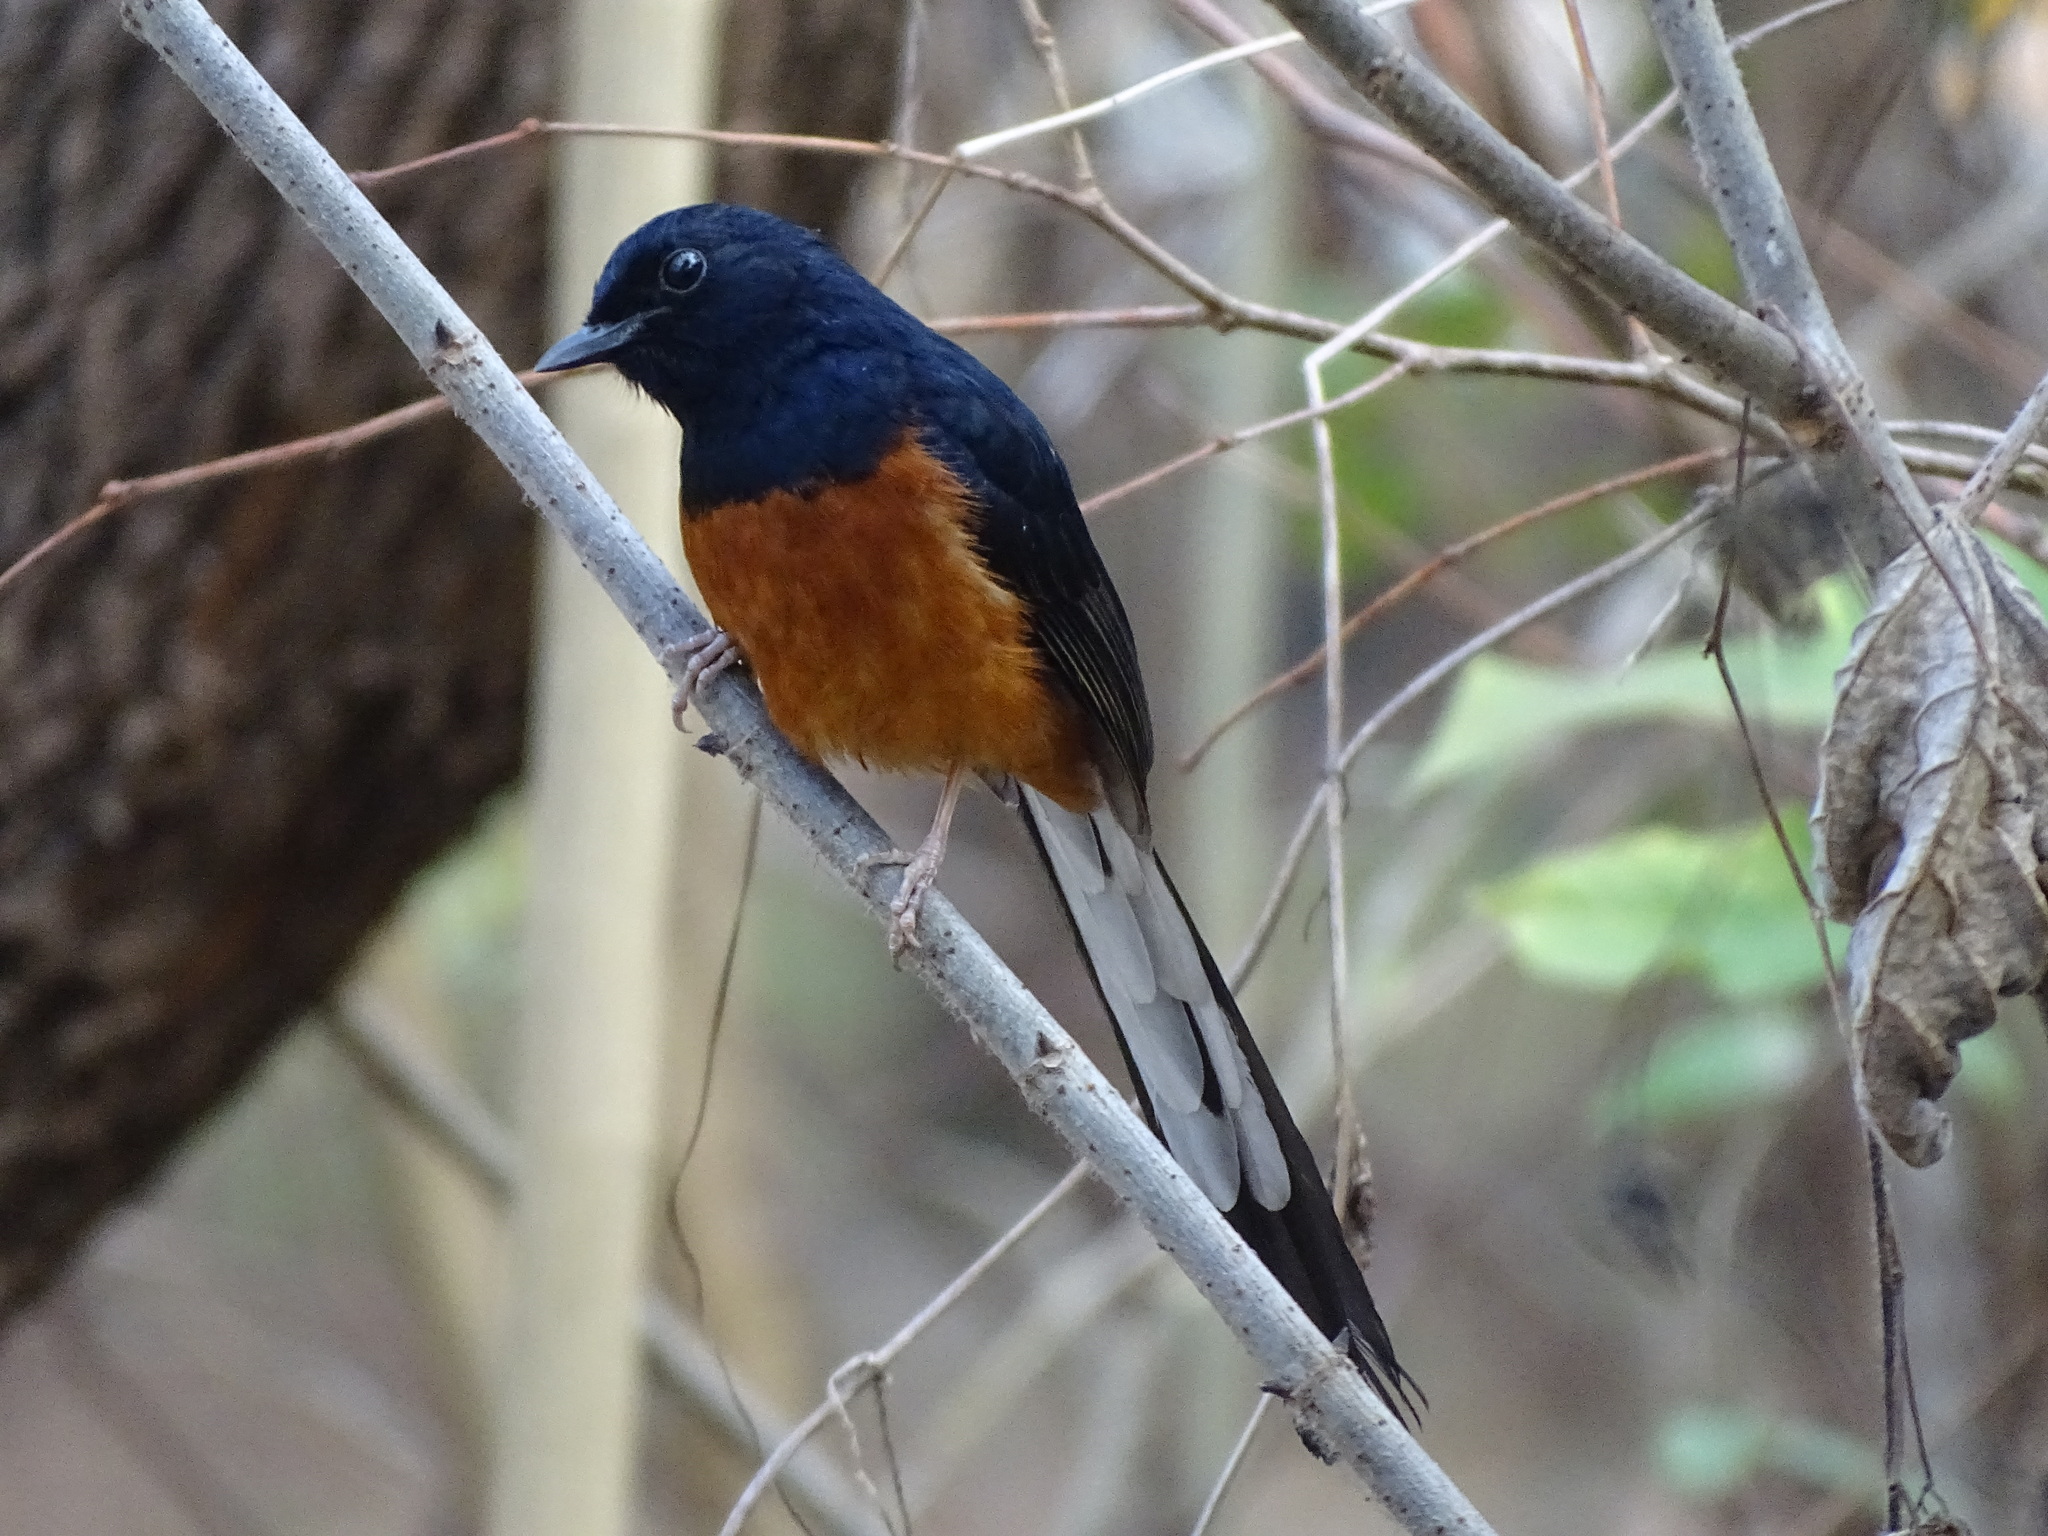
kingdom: Animalia
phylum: Chordata
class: Aves
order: Passeriformes
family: Muscicapidae
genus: Copsychus
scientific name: Copsychus malabaricus
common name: White-rumped shama
